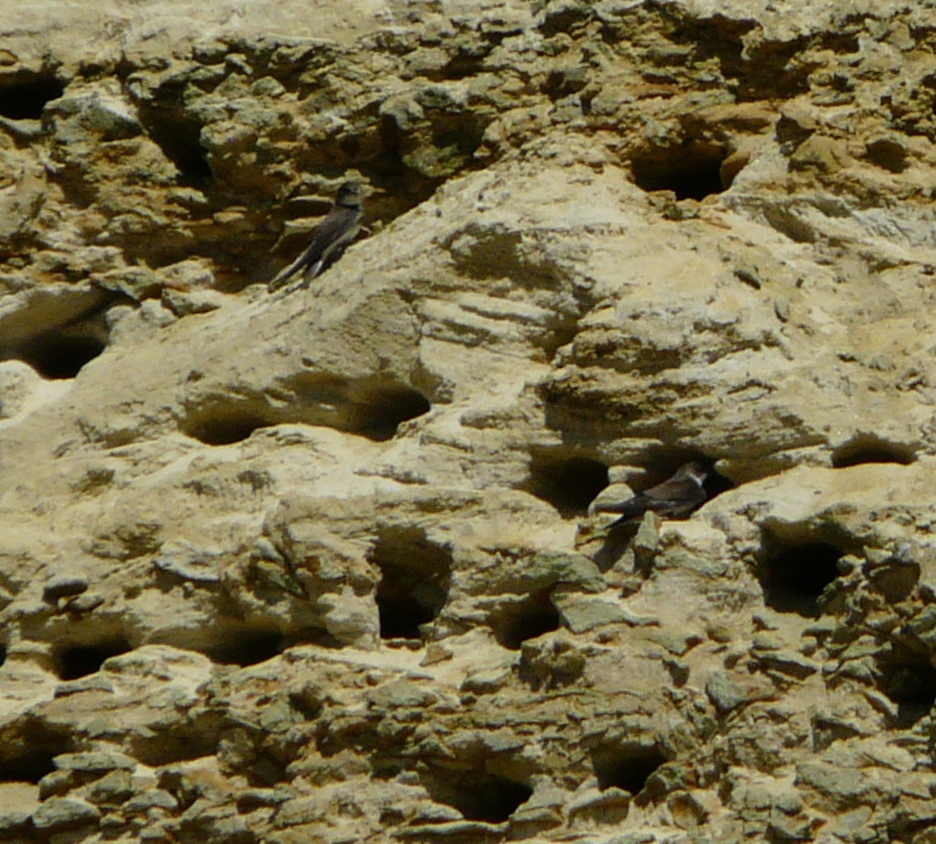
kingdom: Animalia
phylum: Chordata
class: Aves
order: Passeriformes
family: Hirundinidae
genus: Riparia
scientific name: Riparia riparia
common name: Sand martin
